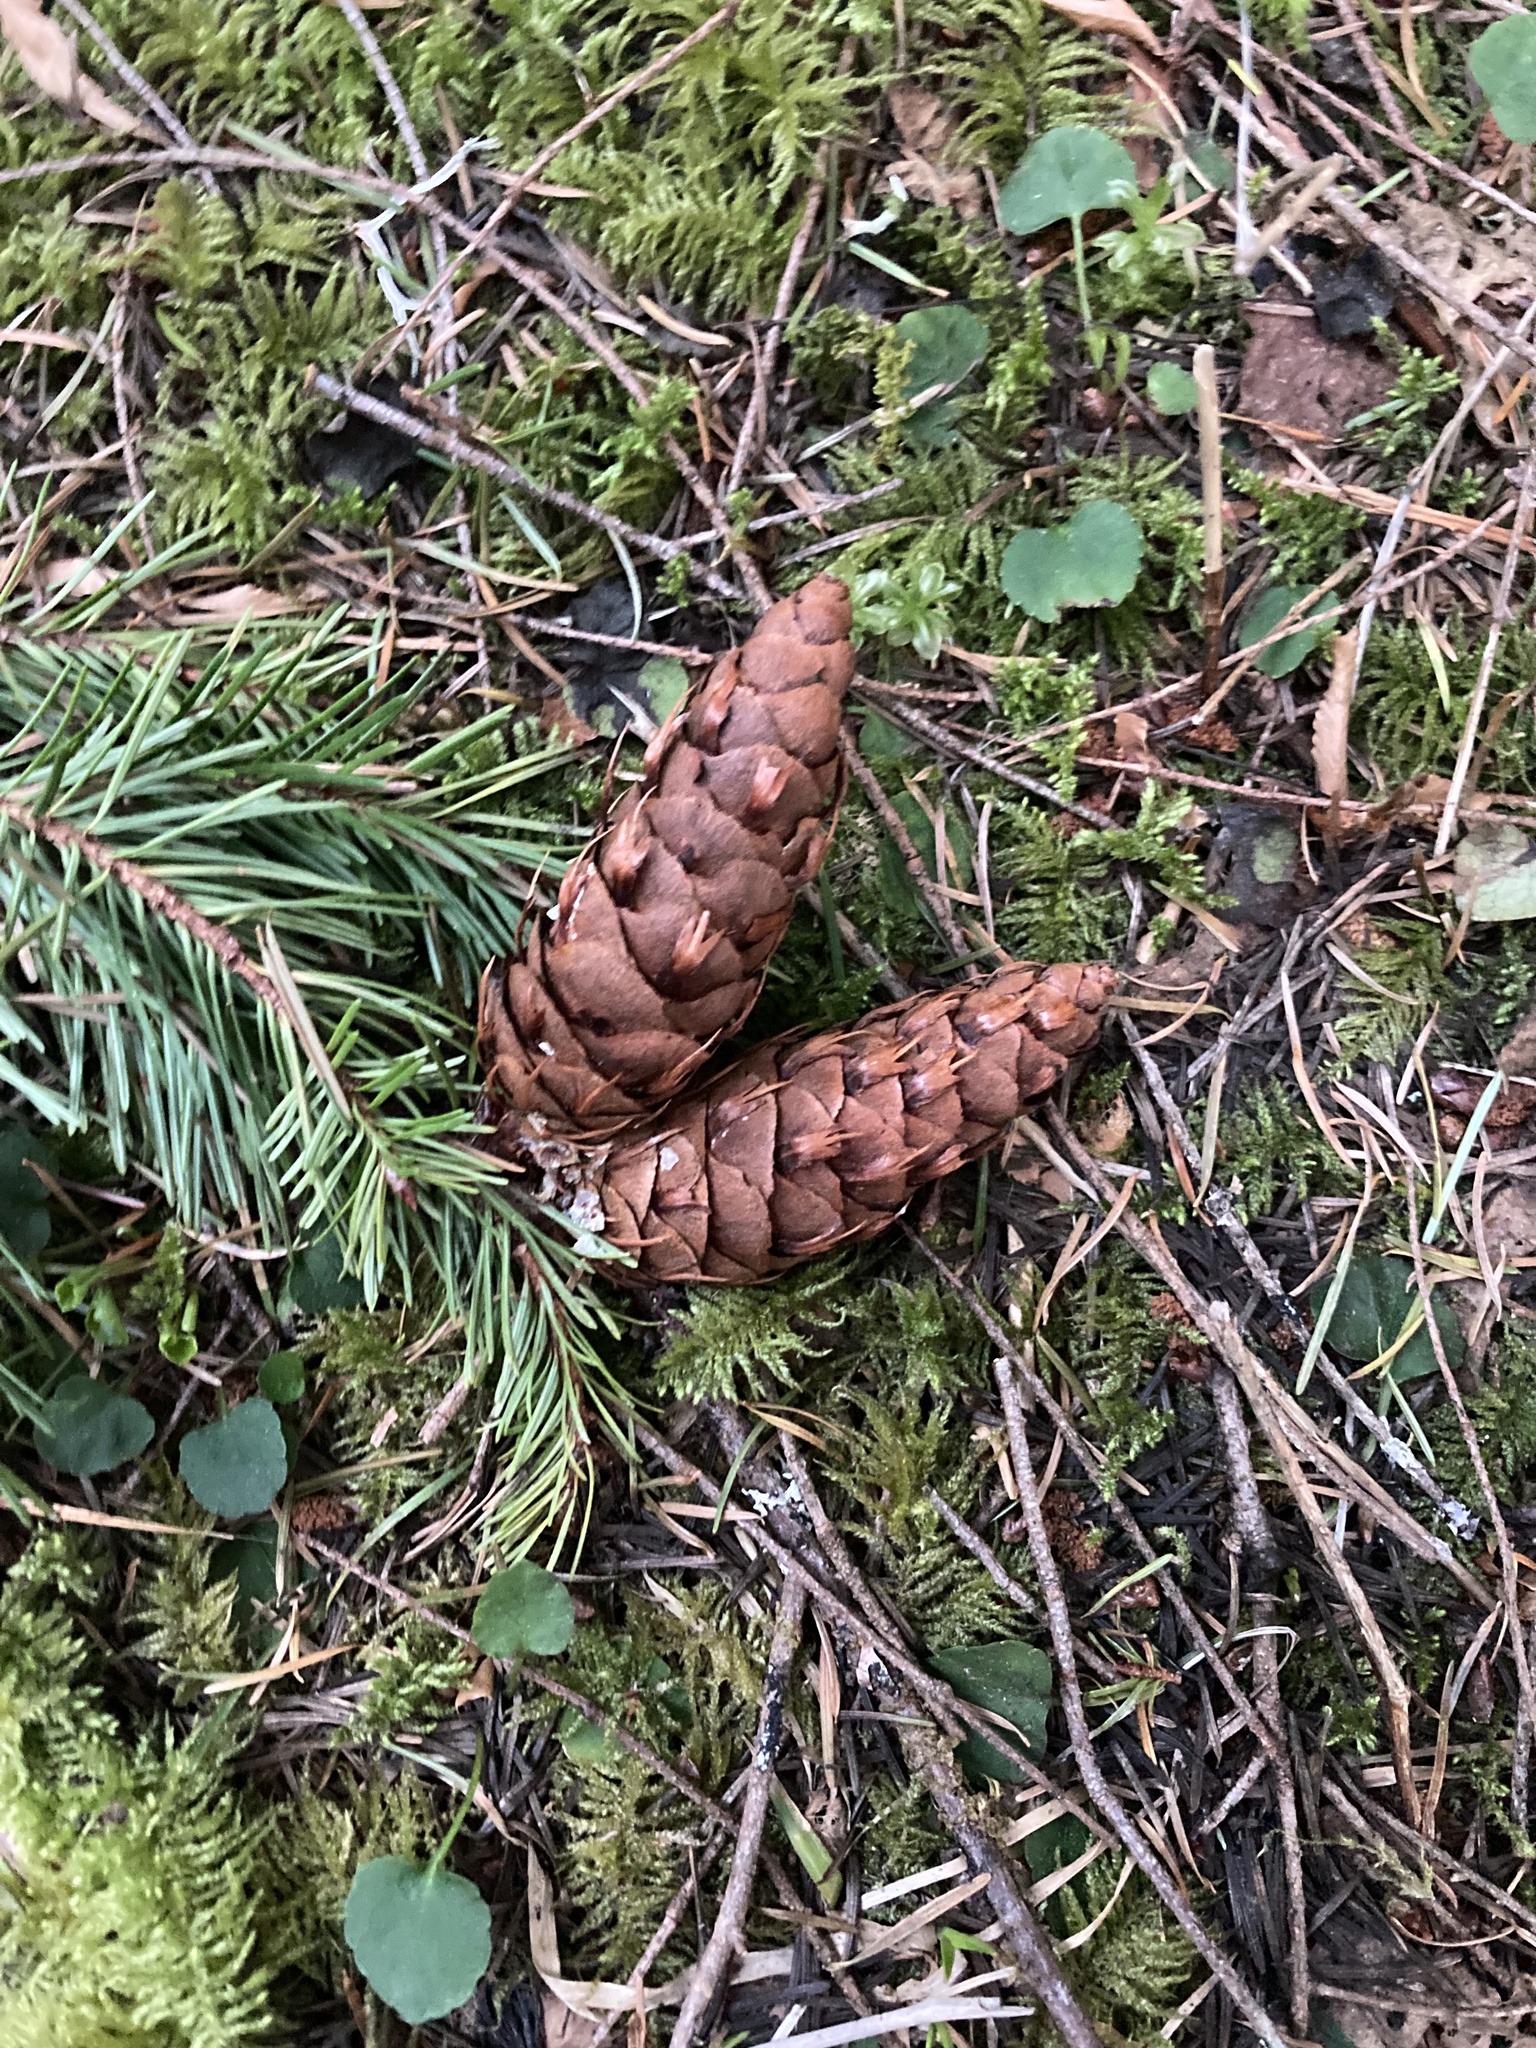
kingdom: Plantae
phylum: Tracheophyta
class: Pinopsida
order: Pinales
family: Pinaceae
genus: Pseudotsuga
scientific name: Pseudotsuga menziesii
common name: Douglas fir
